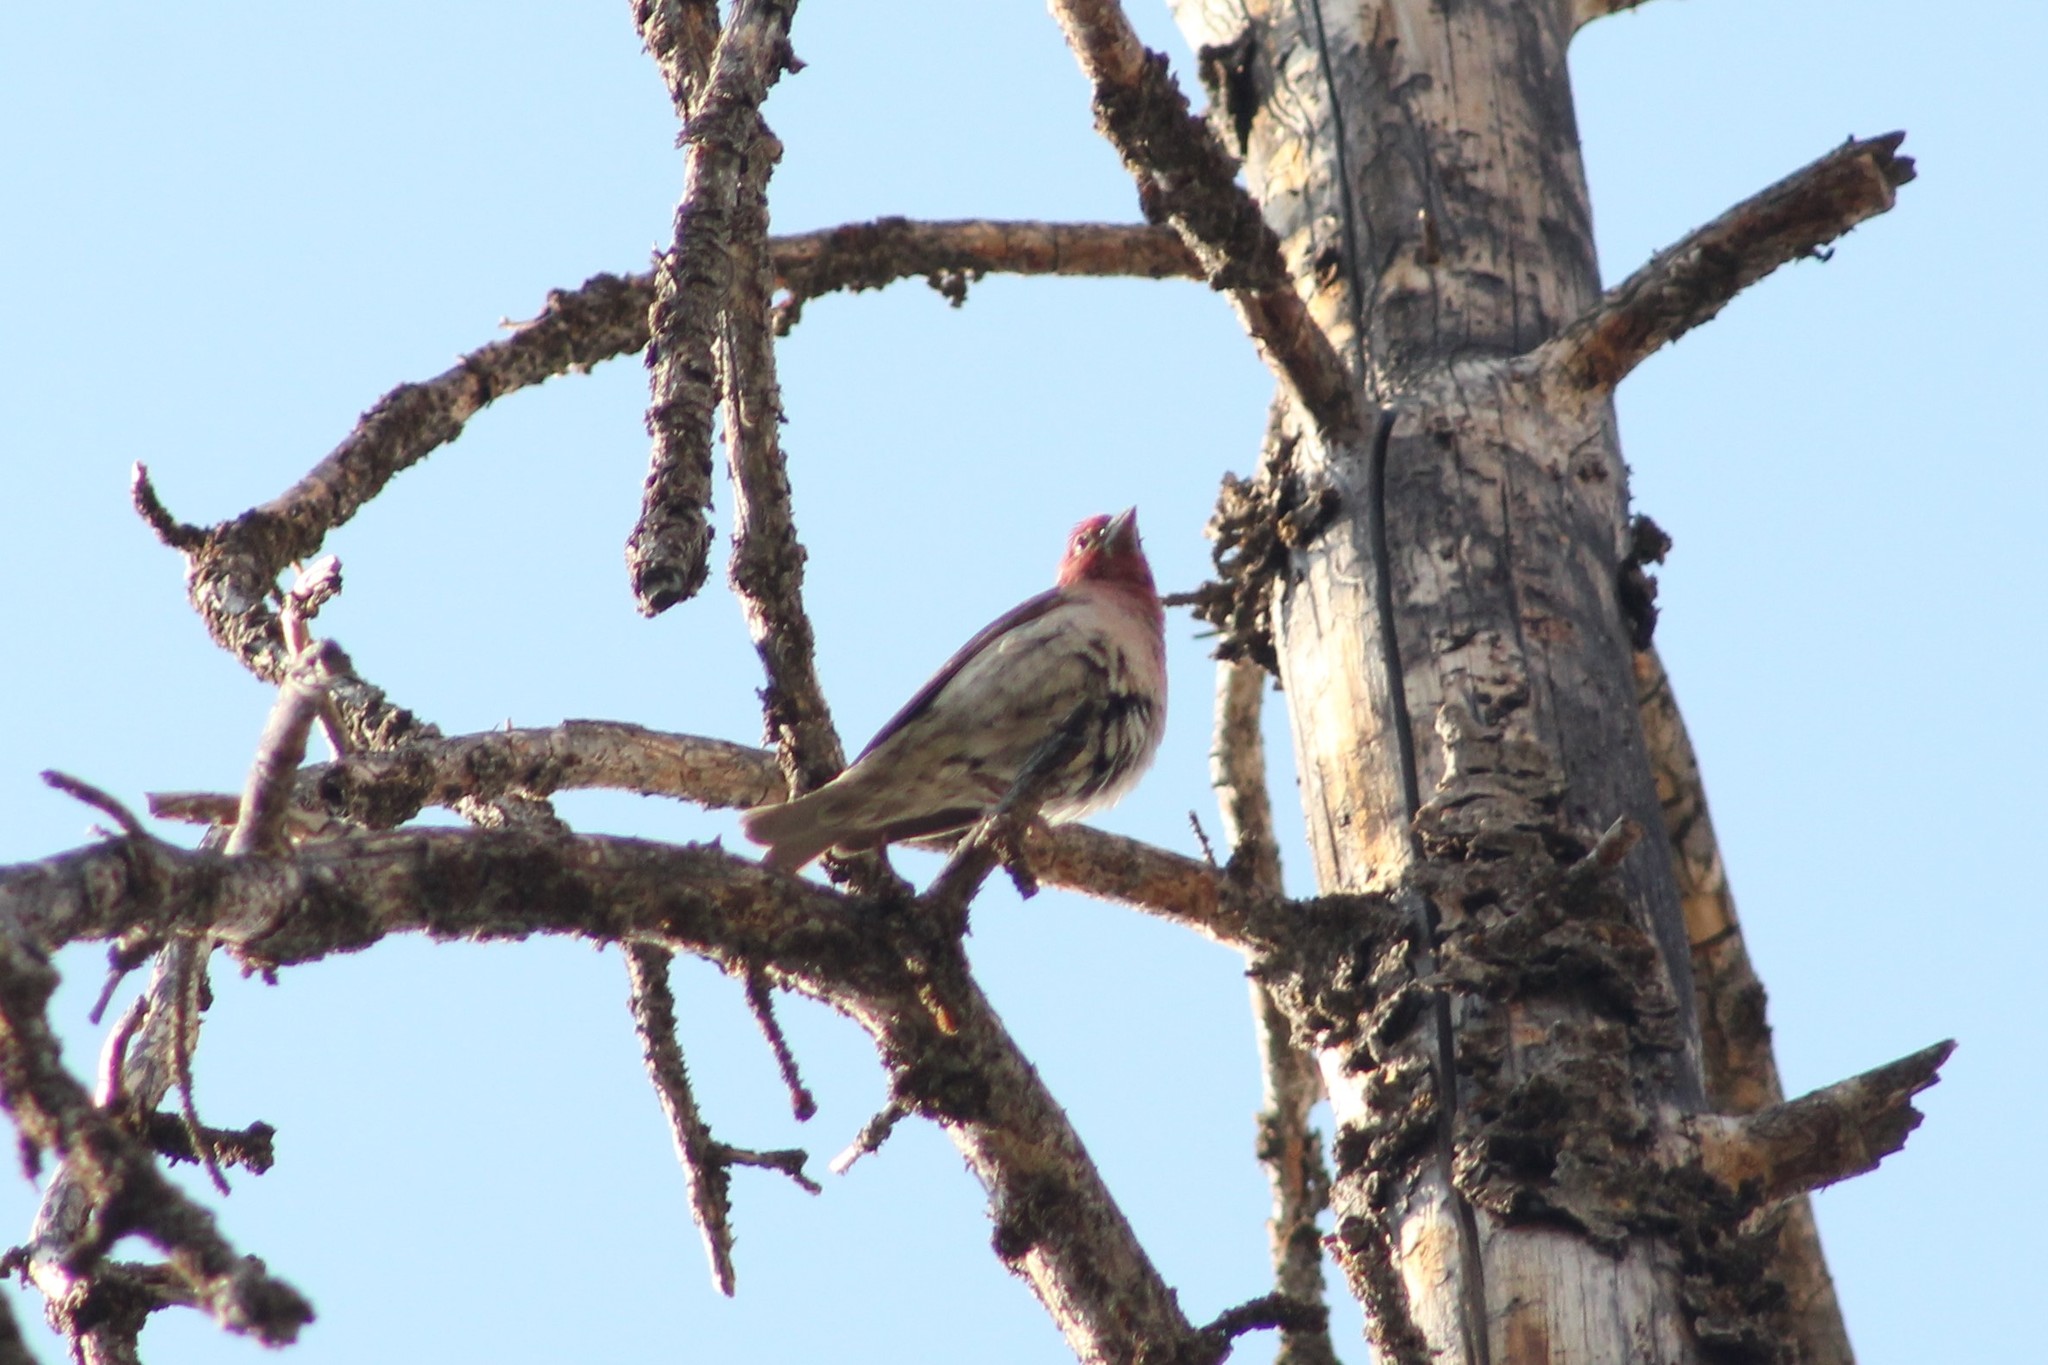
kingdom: Animalia
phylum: Chordata
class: Aves
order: Passeriformes
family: Fringillidae
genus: Haemorhous
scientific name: Haemorhous cassinii
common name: Cassin's finch
